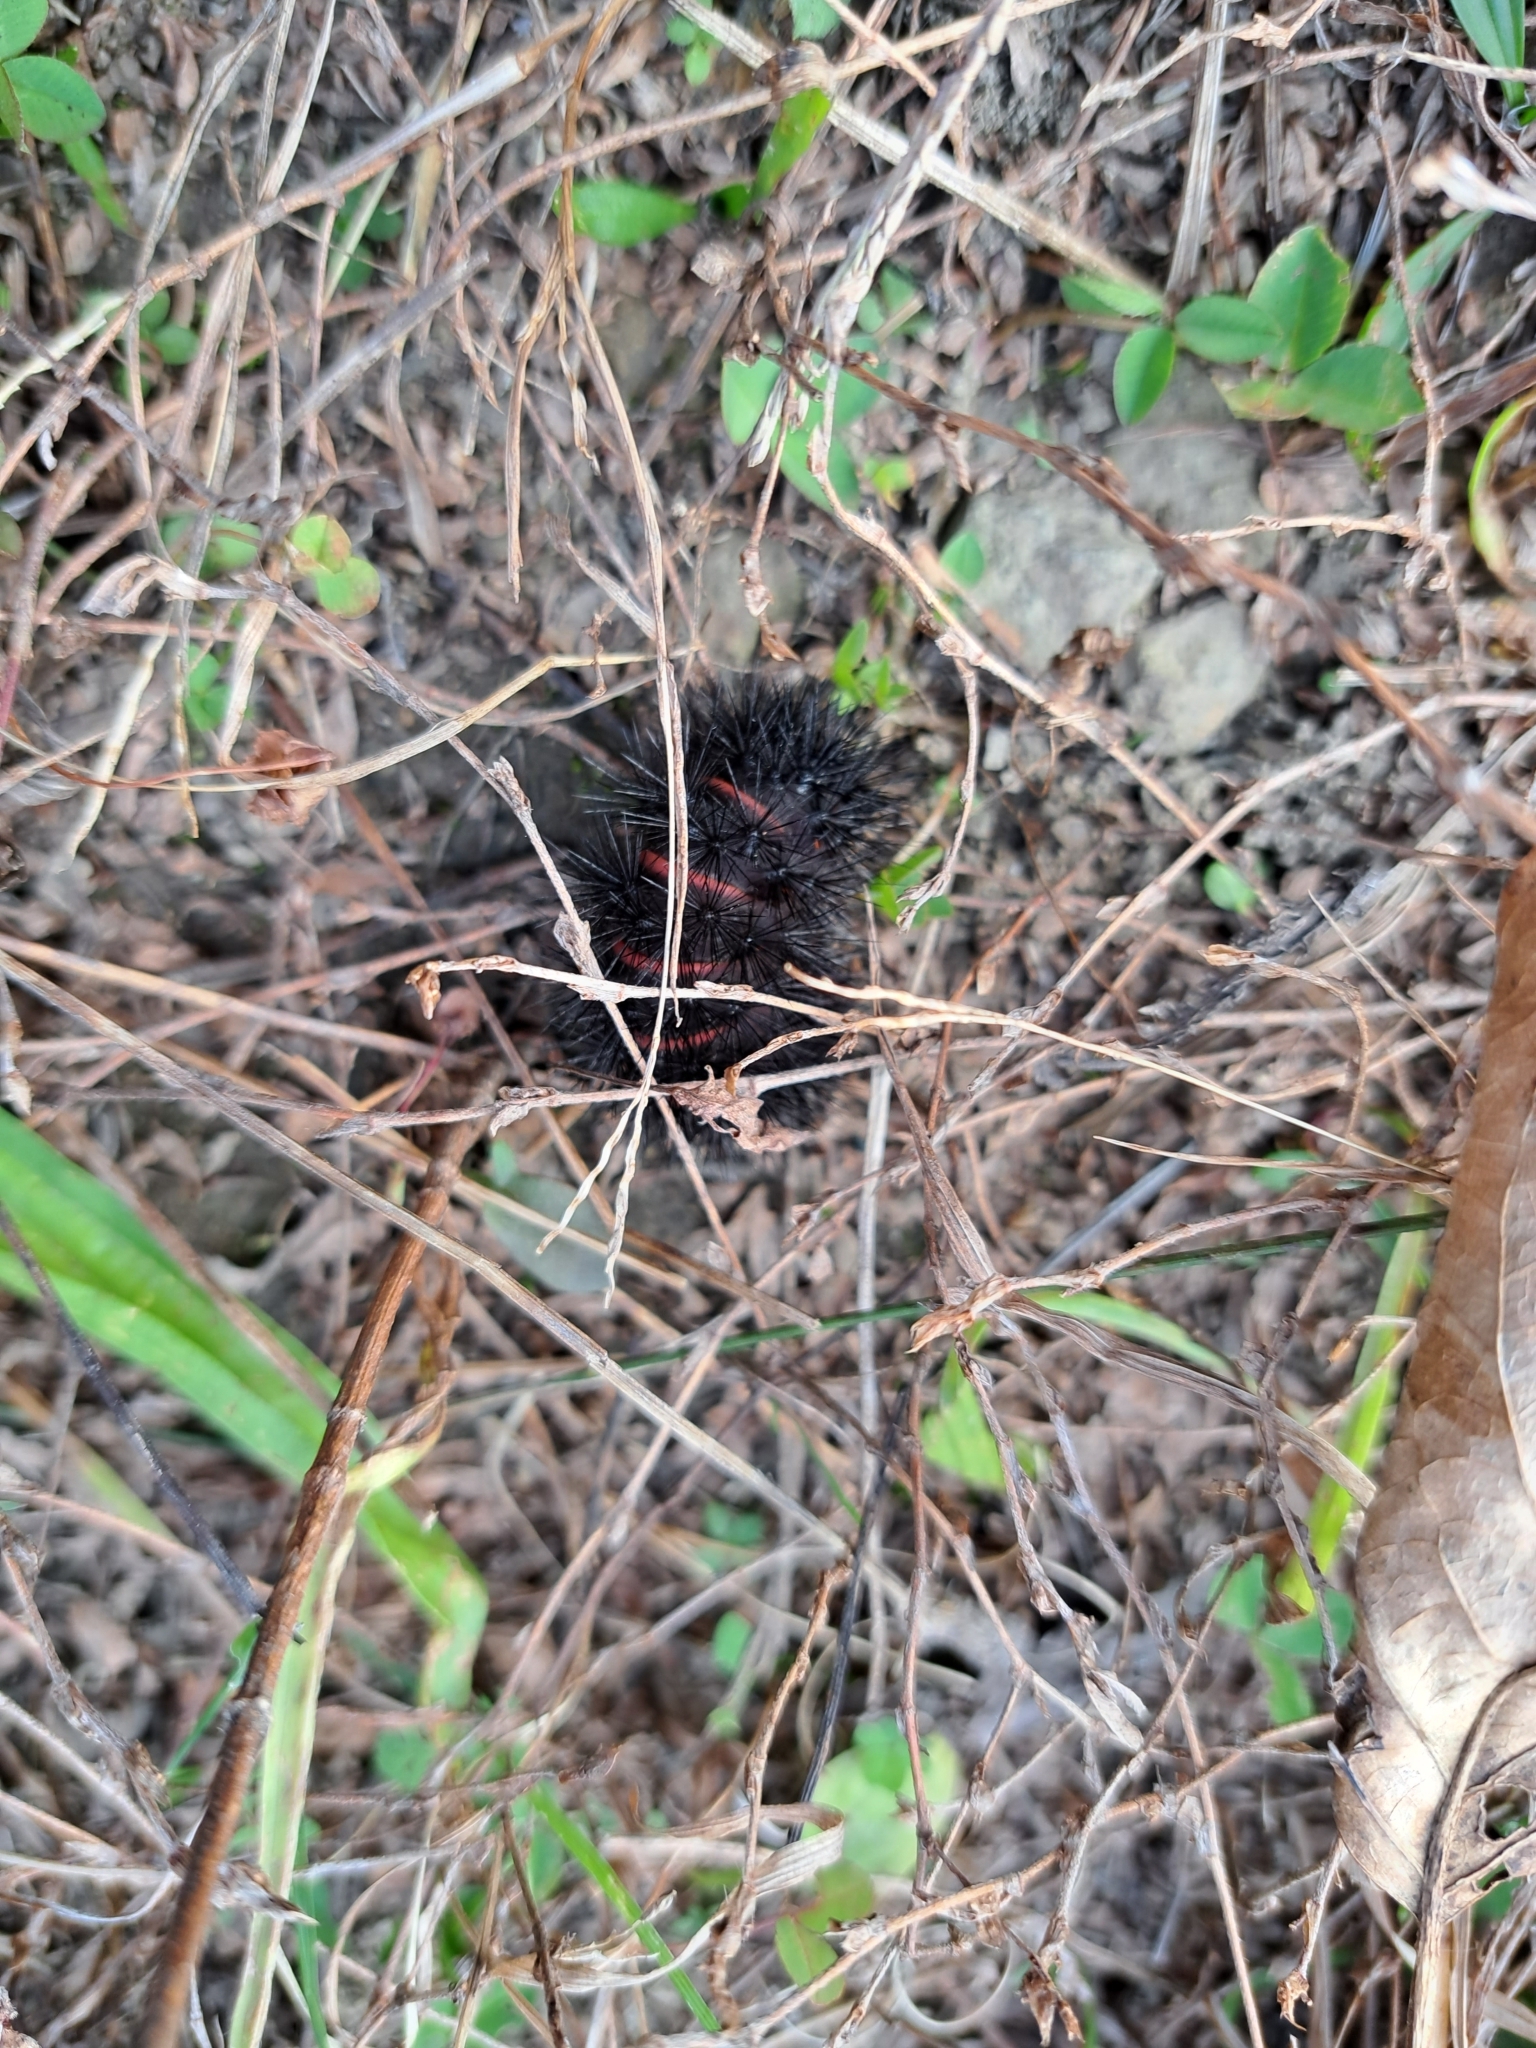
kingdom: Animalia
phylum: Arthropoda
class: Insecta
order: Lepidoptera
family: Erebidae
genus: Hypercompe
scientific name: Hypercompe scribonia
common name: Giant leopard moth
